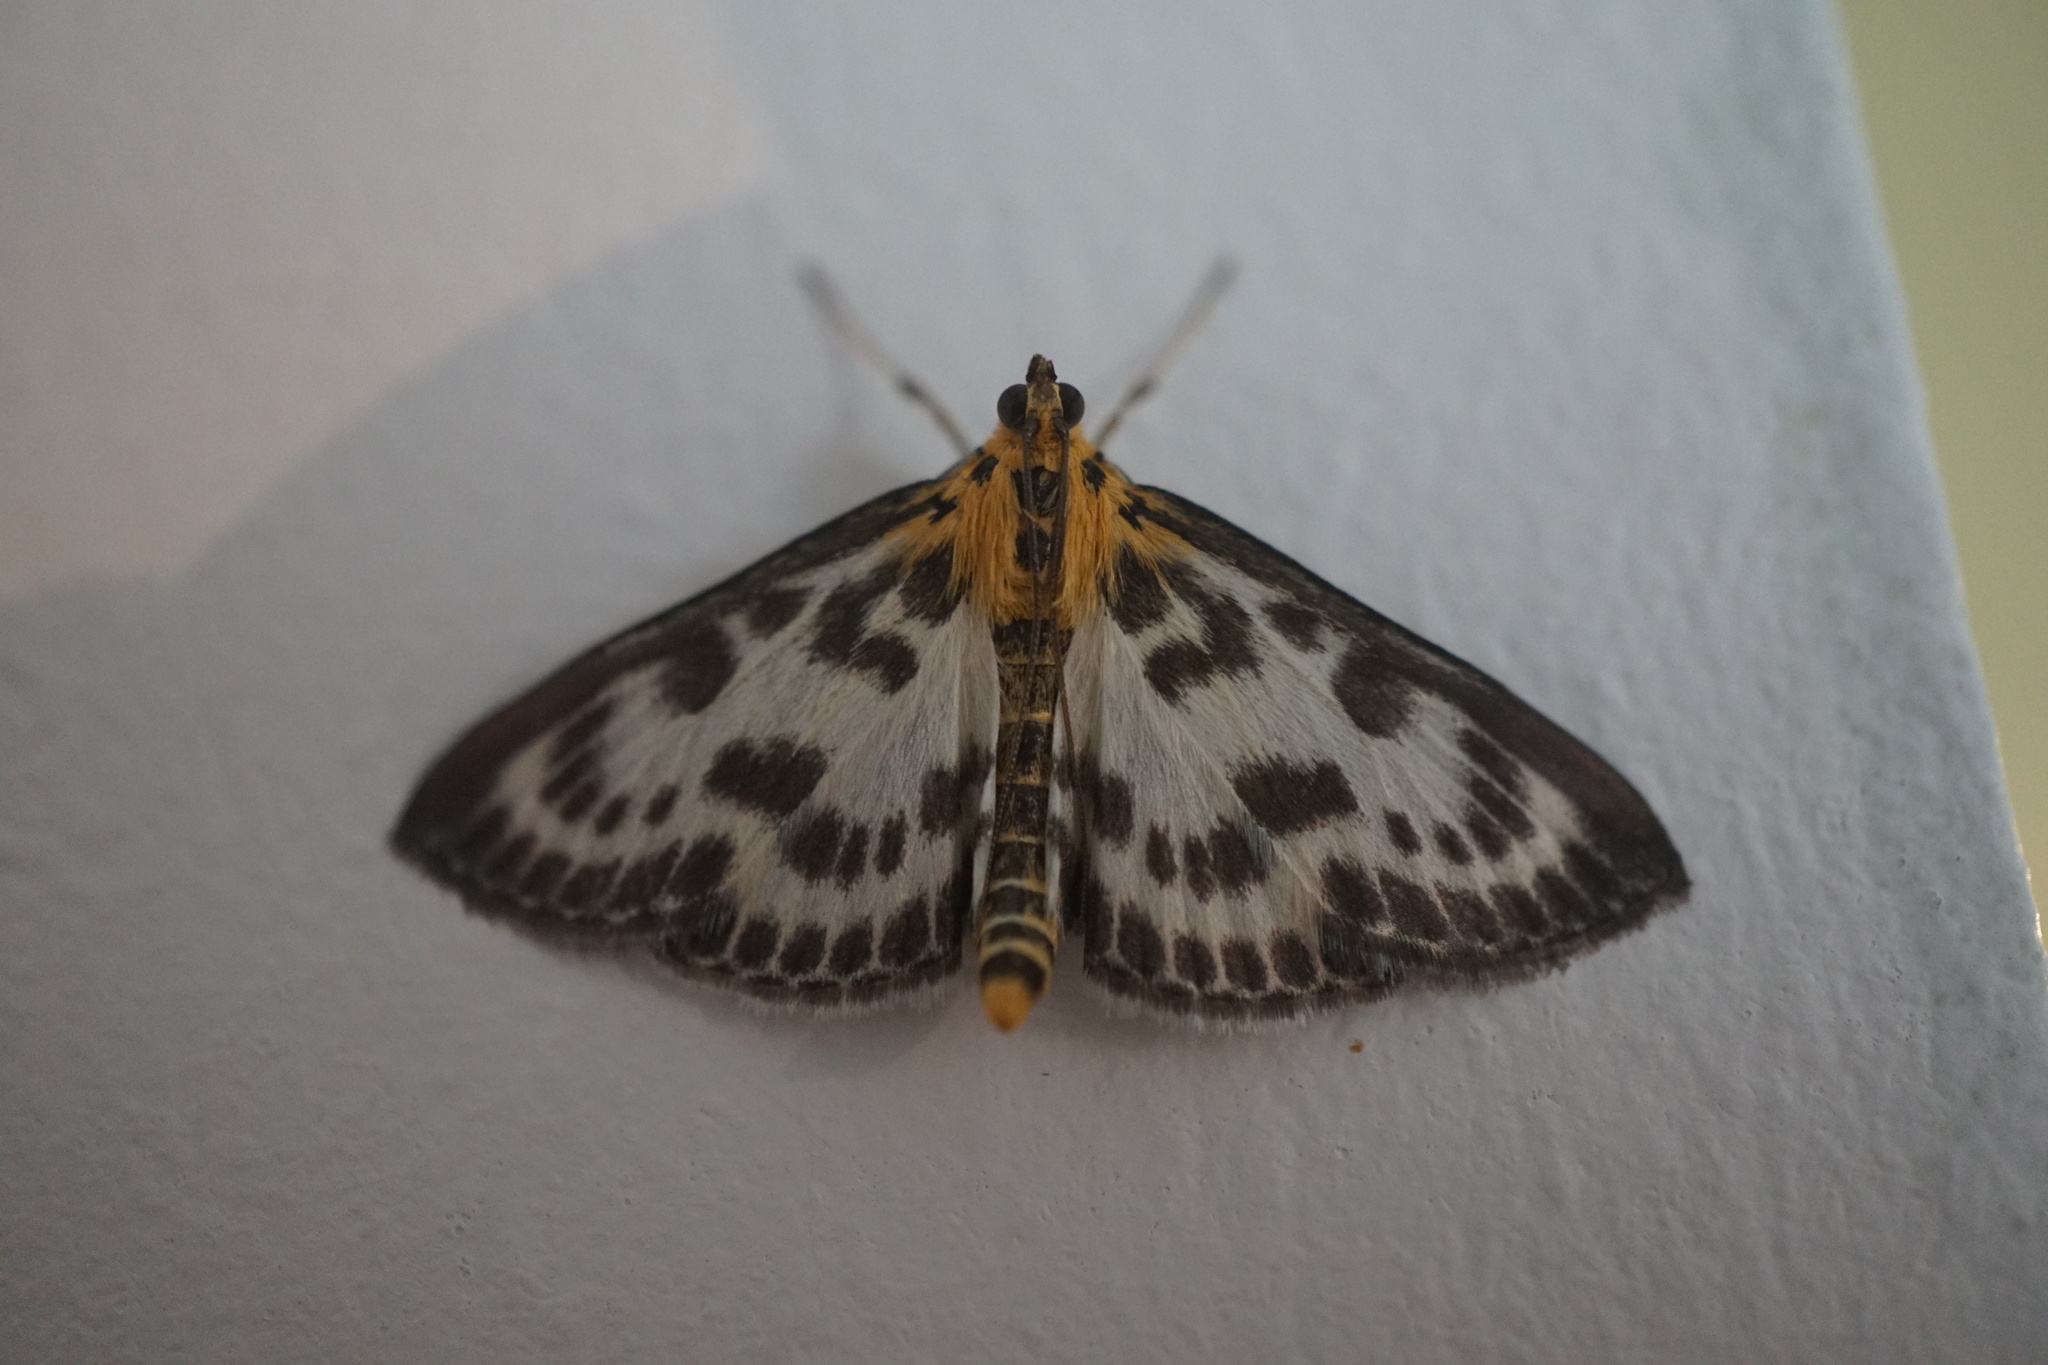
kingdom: Animalia
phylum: Arthropoda
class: Insecta
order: Lepidoptera
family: Crambidae
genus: Anania
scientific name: Anania hortulata
